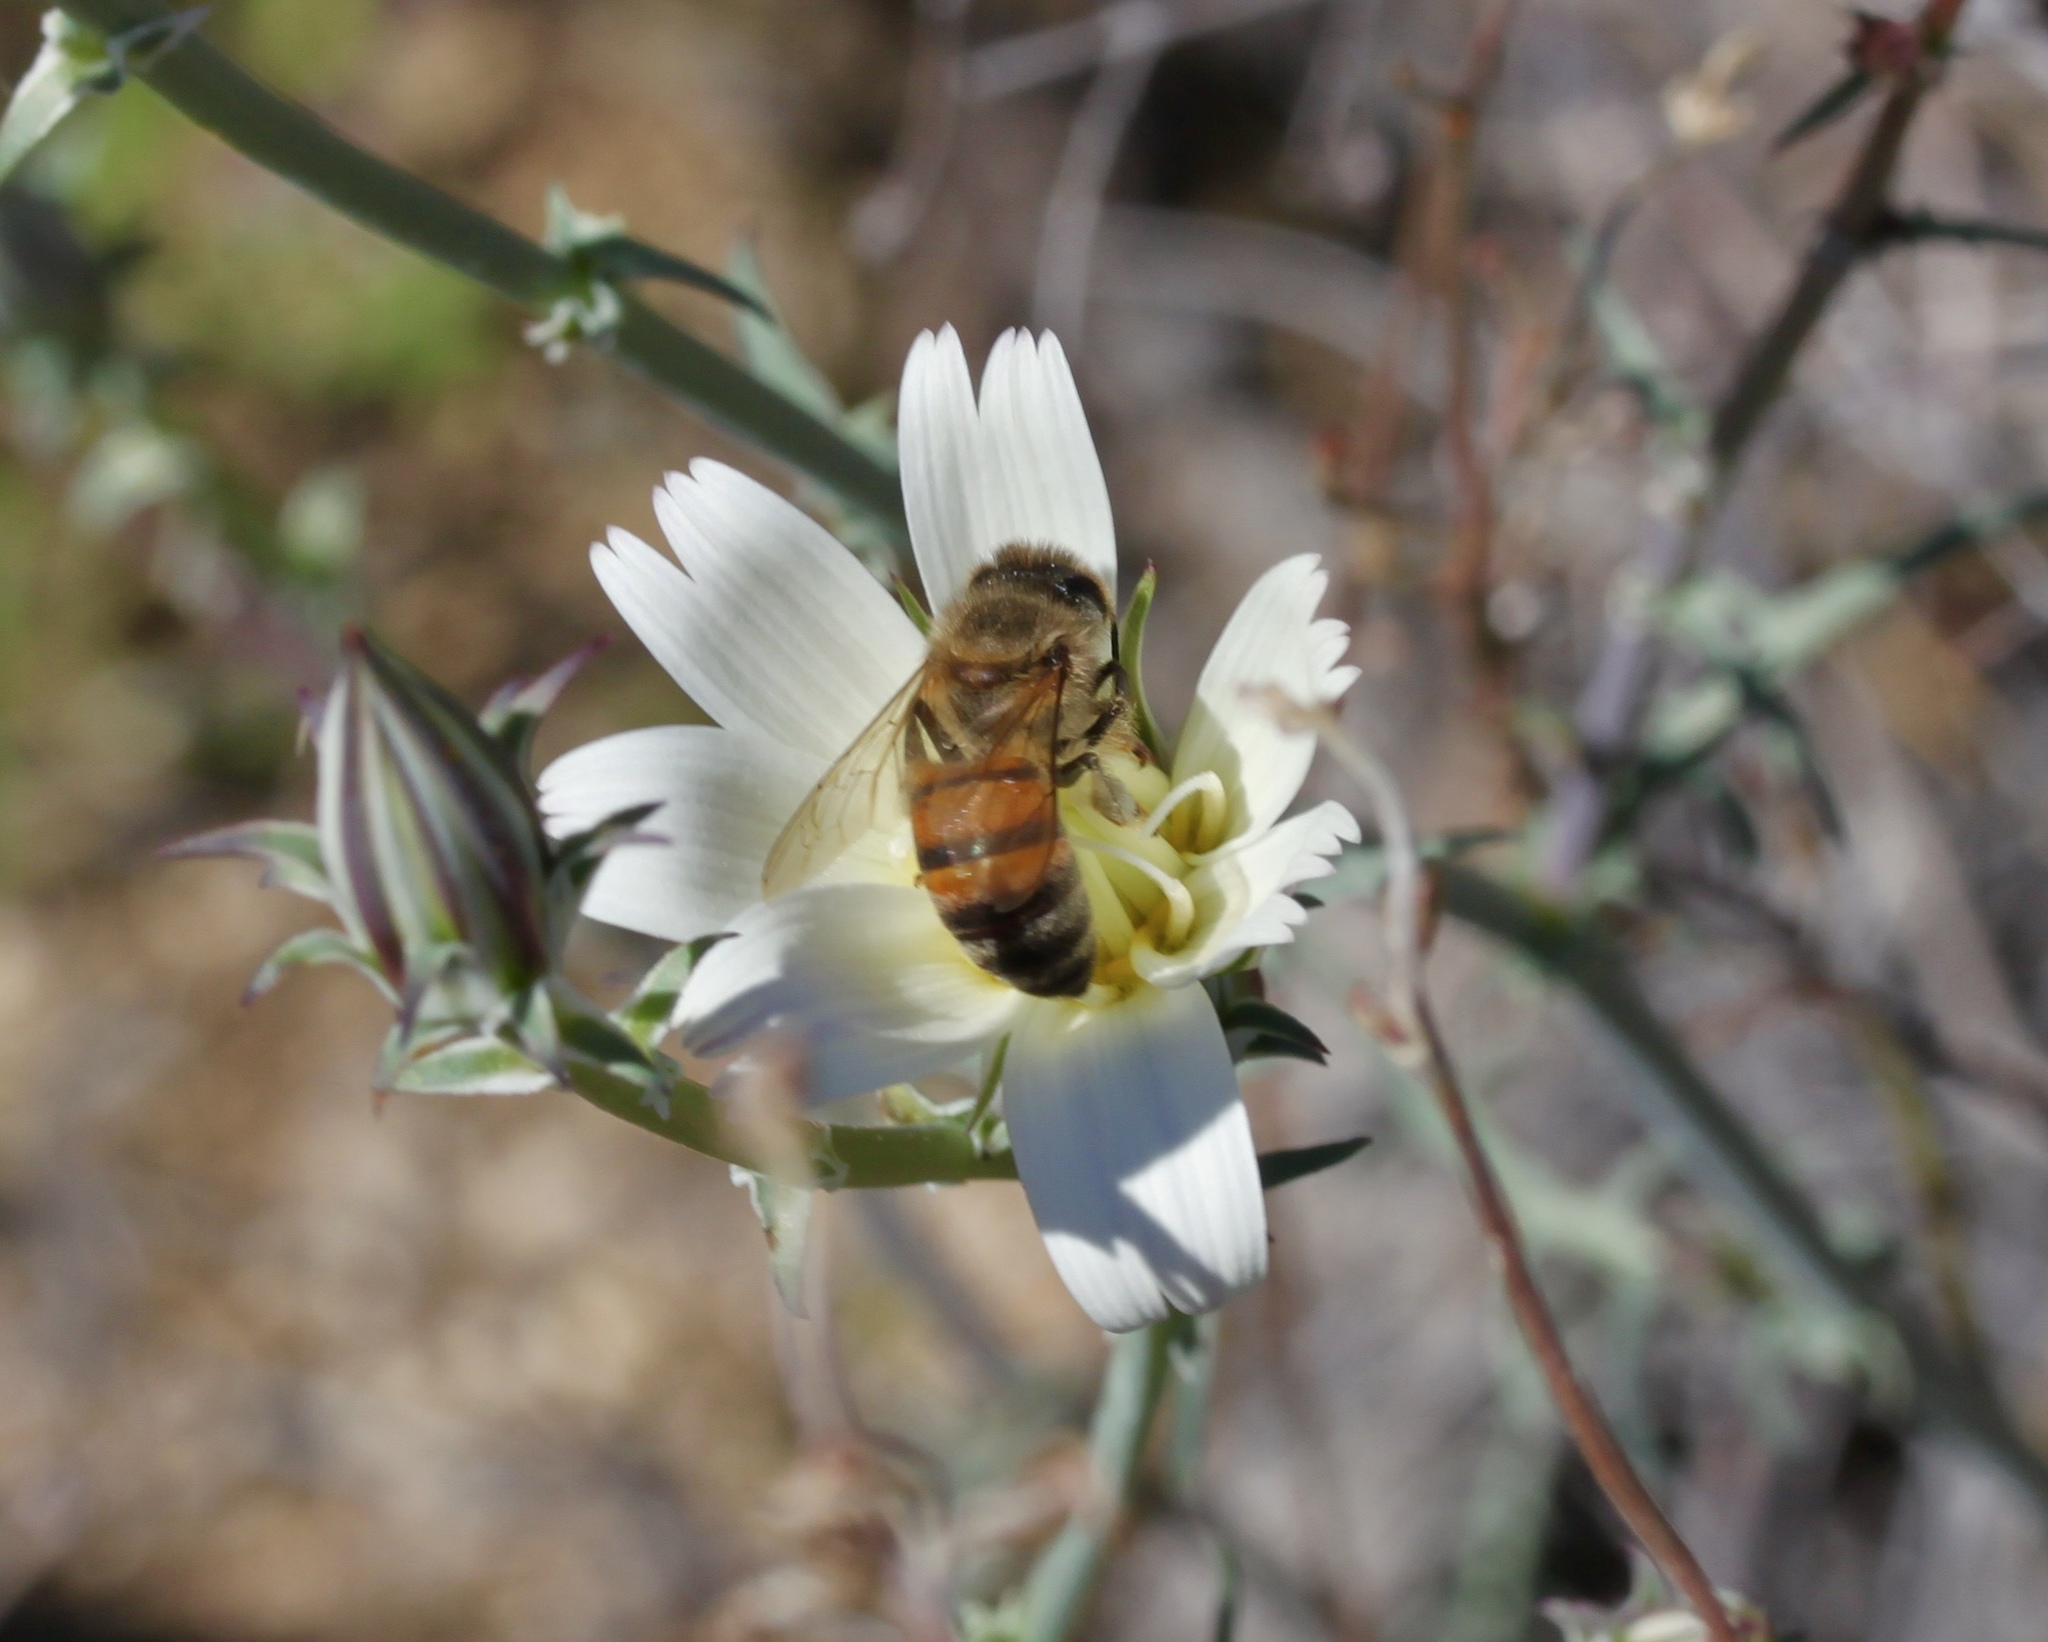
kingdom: Animalia
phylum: Arthropoda
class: Insecta
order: Hymenoptera
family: Apidae
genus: Apis
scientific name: Apis mellifera
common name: Honey bee
